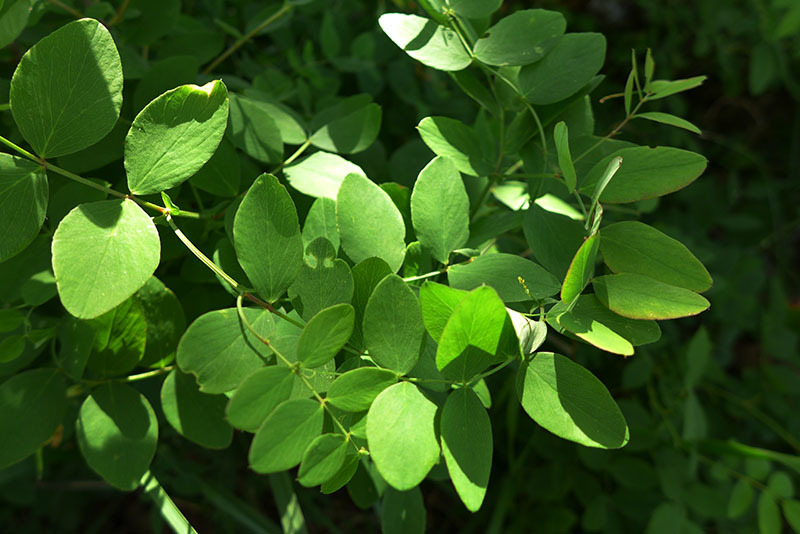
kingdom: Plantae
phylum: Tracheophyta
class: Magnoliopsida
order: Fabales
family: Fabaceae
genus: Lathyrus
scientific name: Lathyrus holochlorus
